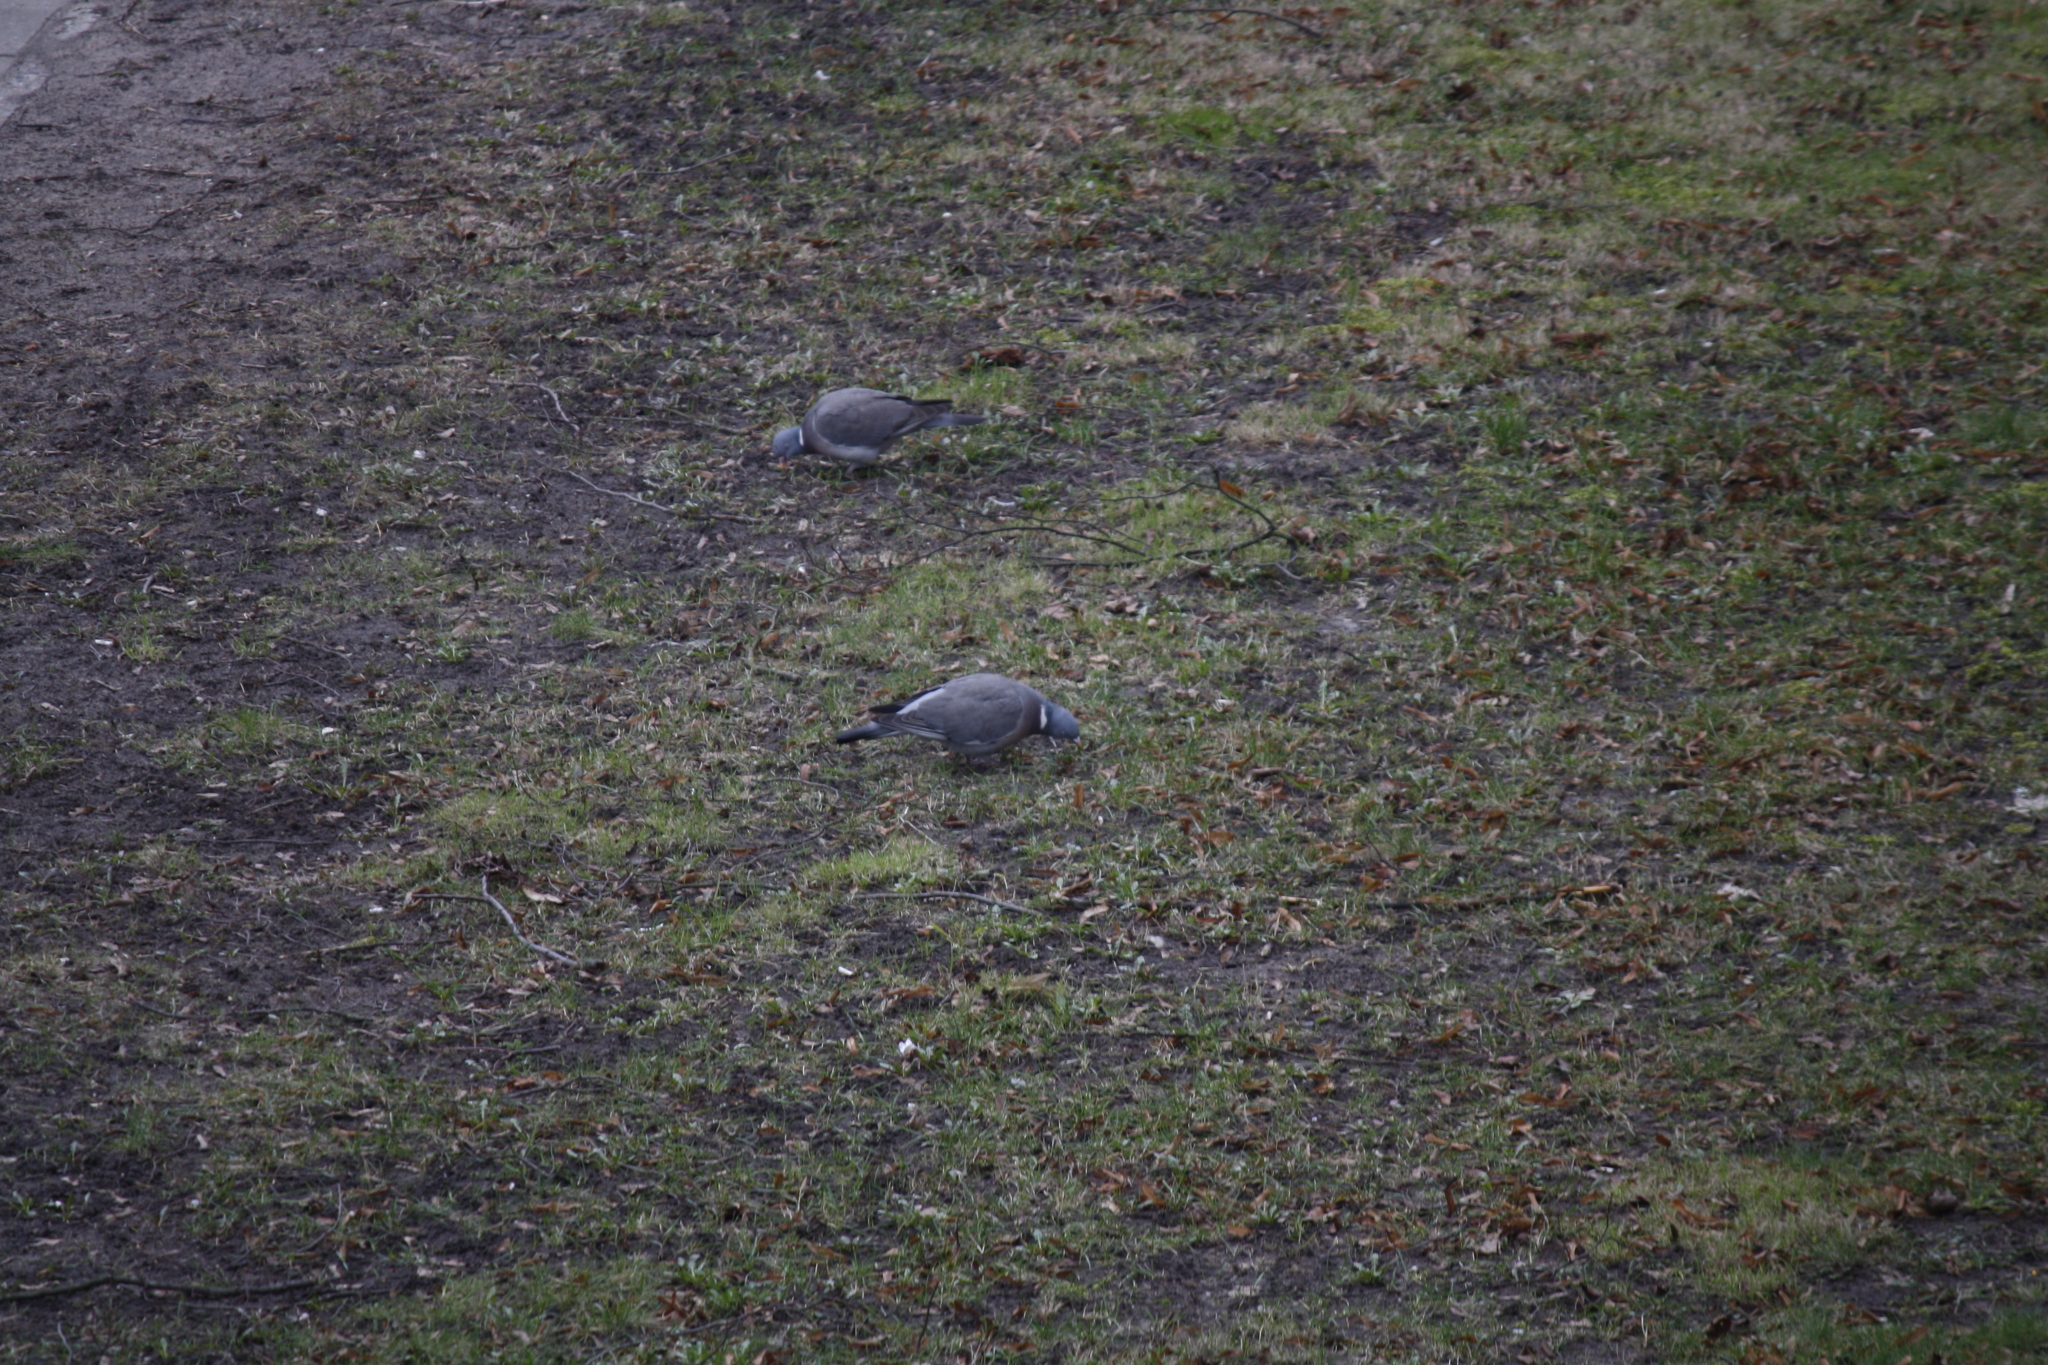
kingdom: Animalia
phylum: Chordata
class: Aves
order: Columbiformes
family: Columbidae
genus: Columba
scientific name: Columba palumbus
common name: Common wood pigeon
